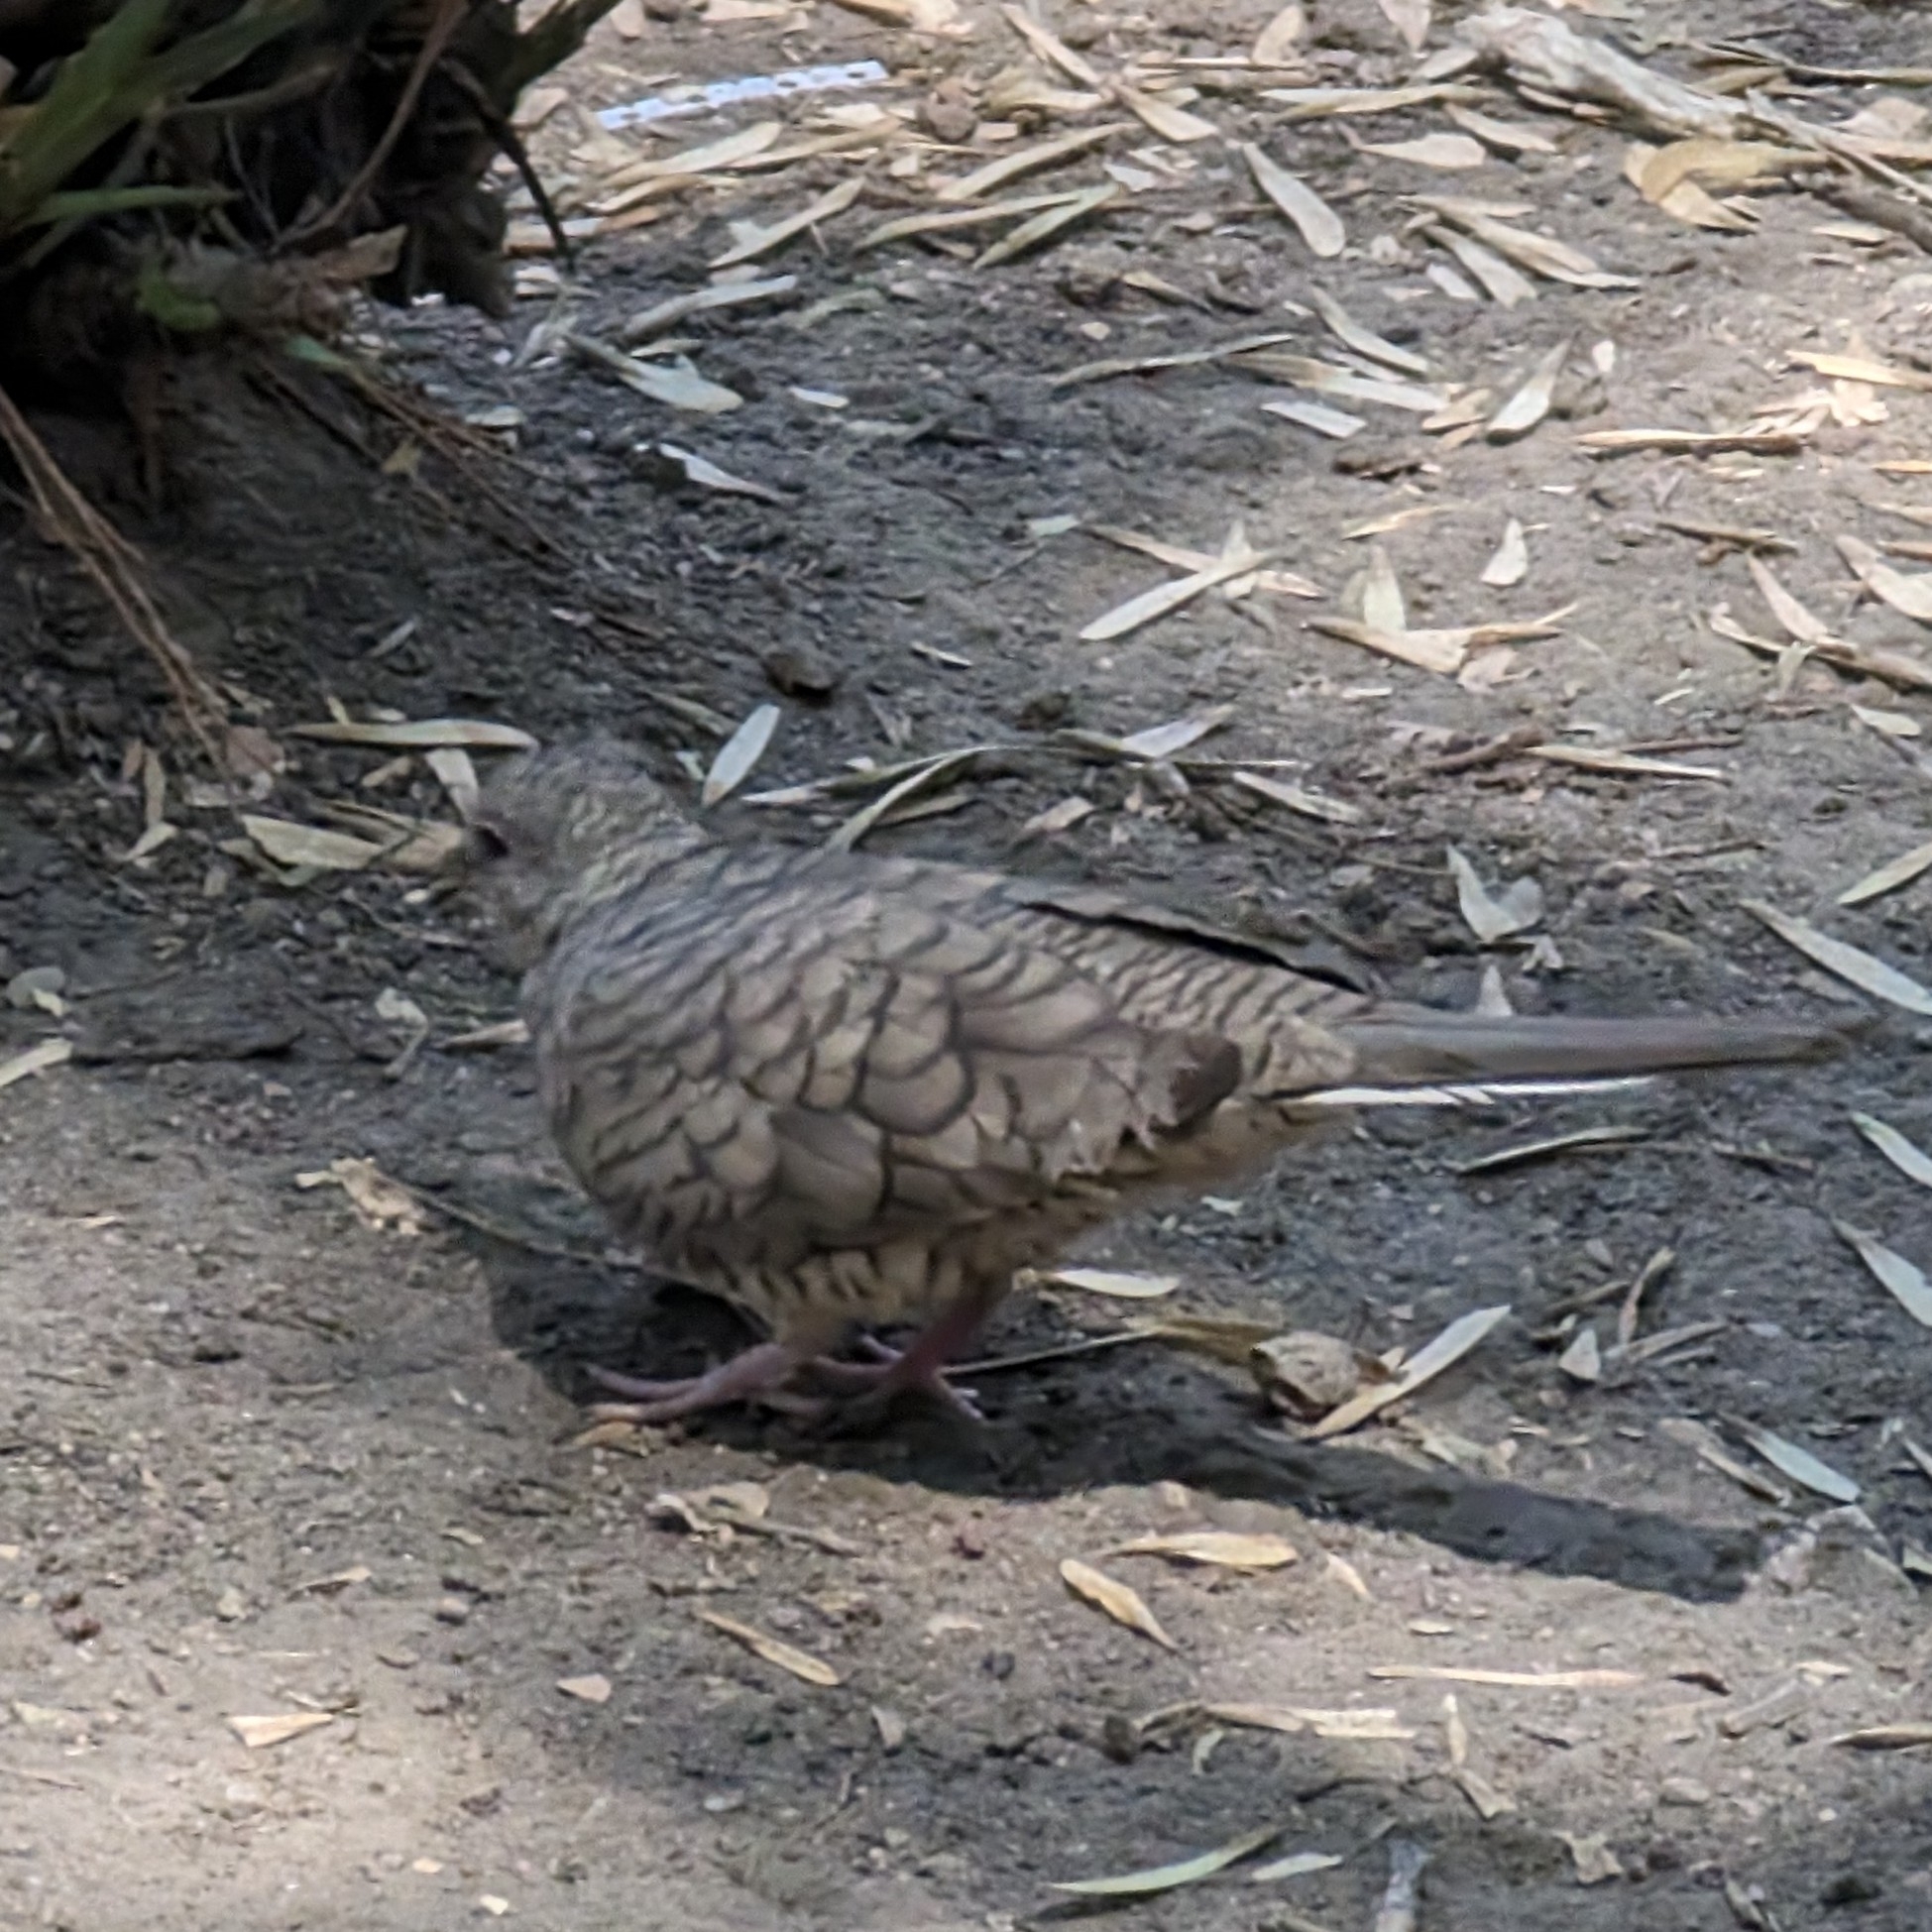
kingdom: Animalia
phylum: Chordata
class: Aves
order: Columbiformes
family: Columbidae
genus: Columbina
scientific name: Columbina inca
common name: Inca dove
